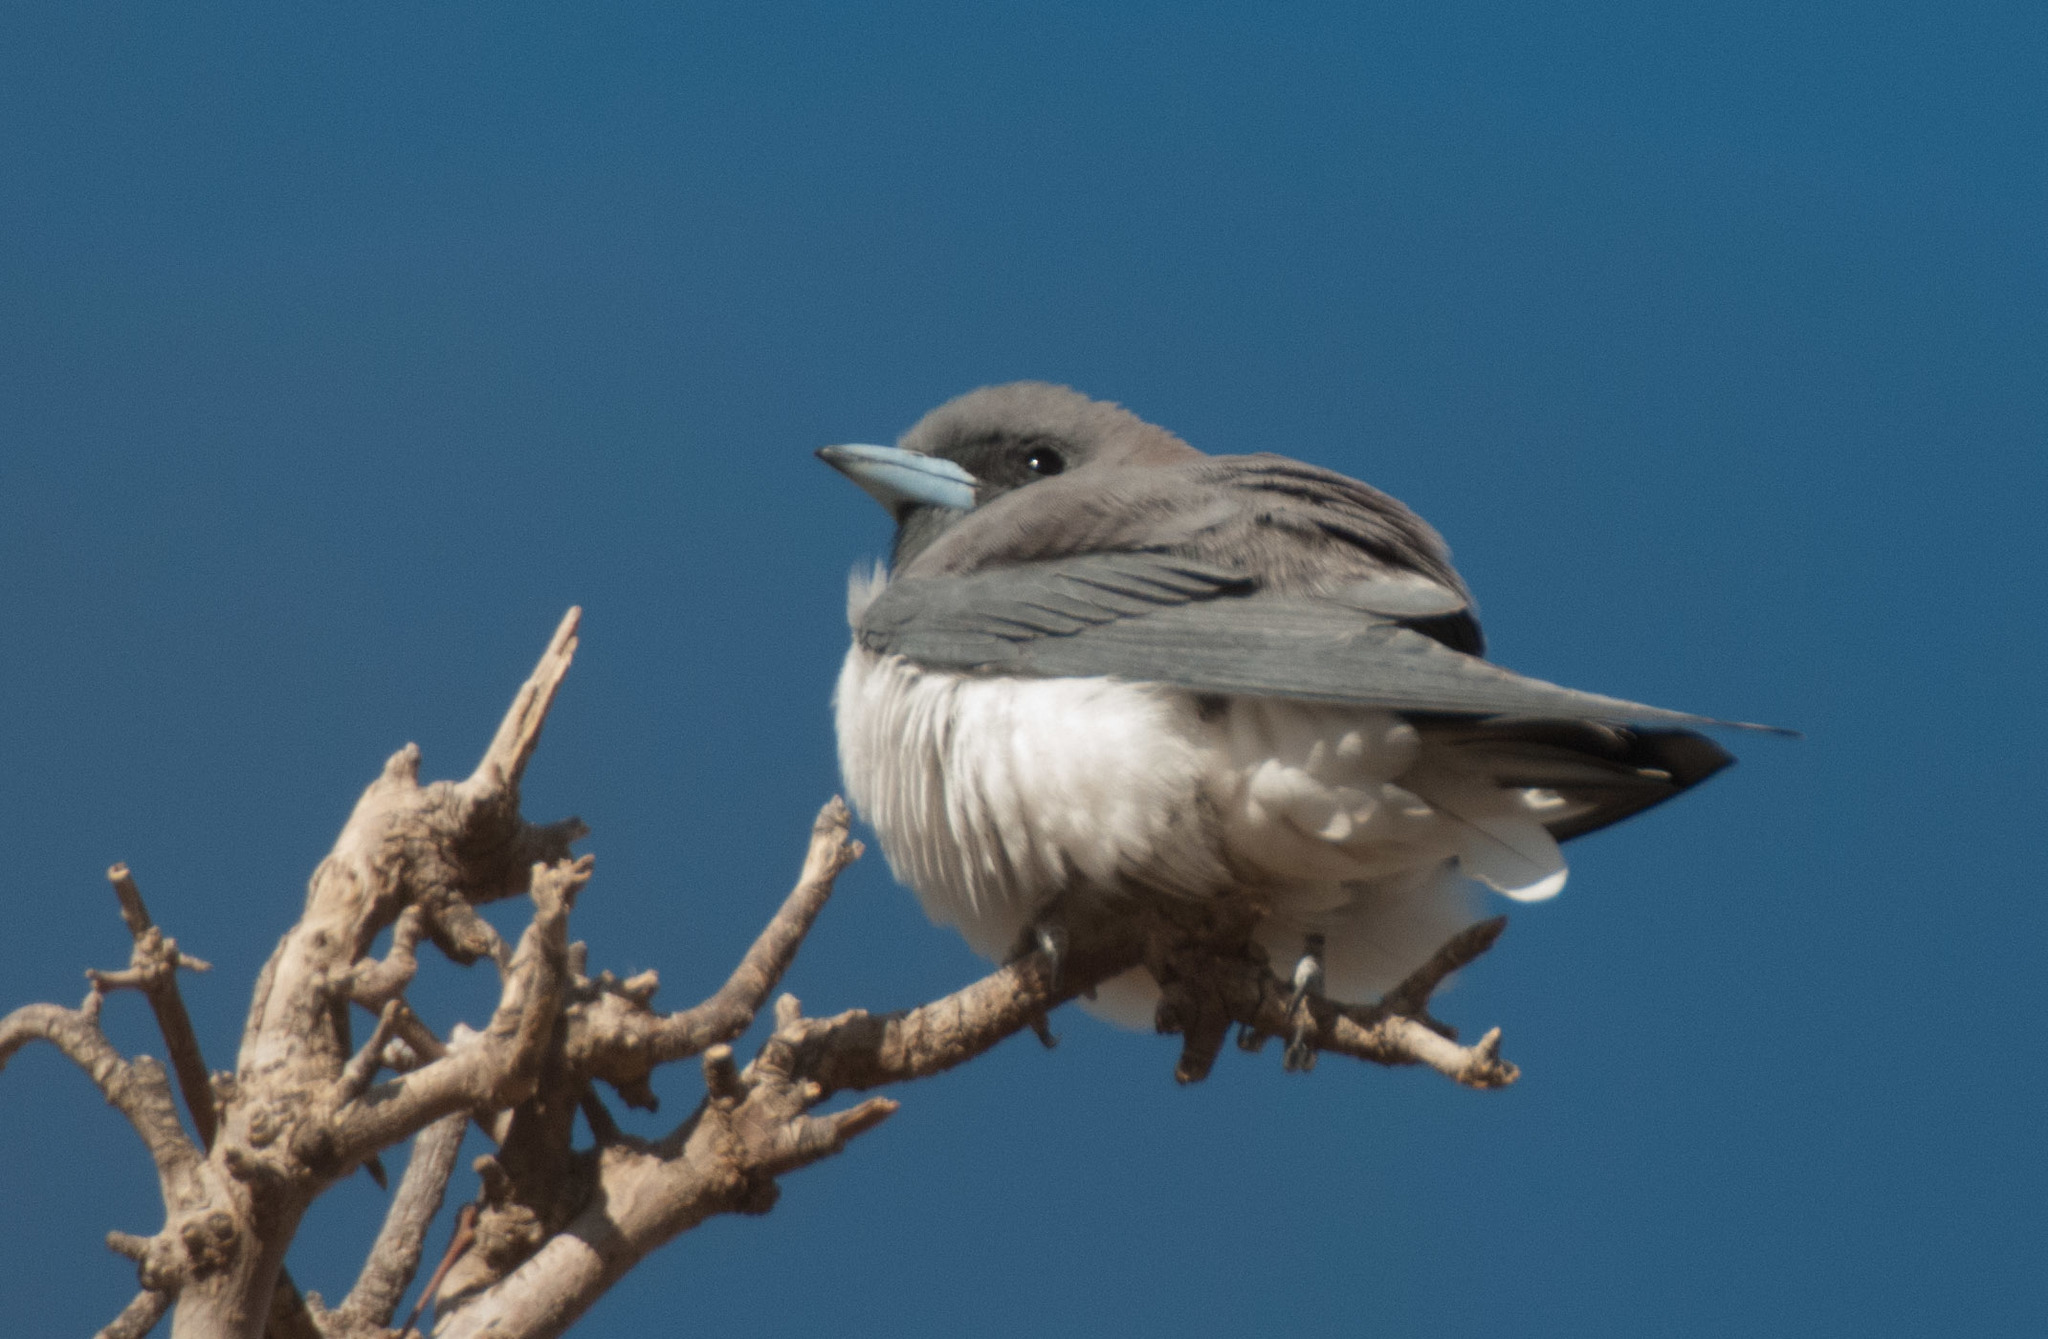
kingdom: Animalia
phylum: Chordata
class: Aves
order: Passeriformes
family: Artamidae
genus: Artamus
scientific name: Artamus leucoryn
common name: White-breasted woodswallow
